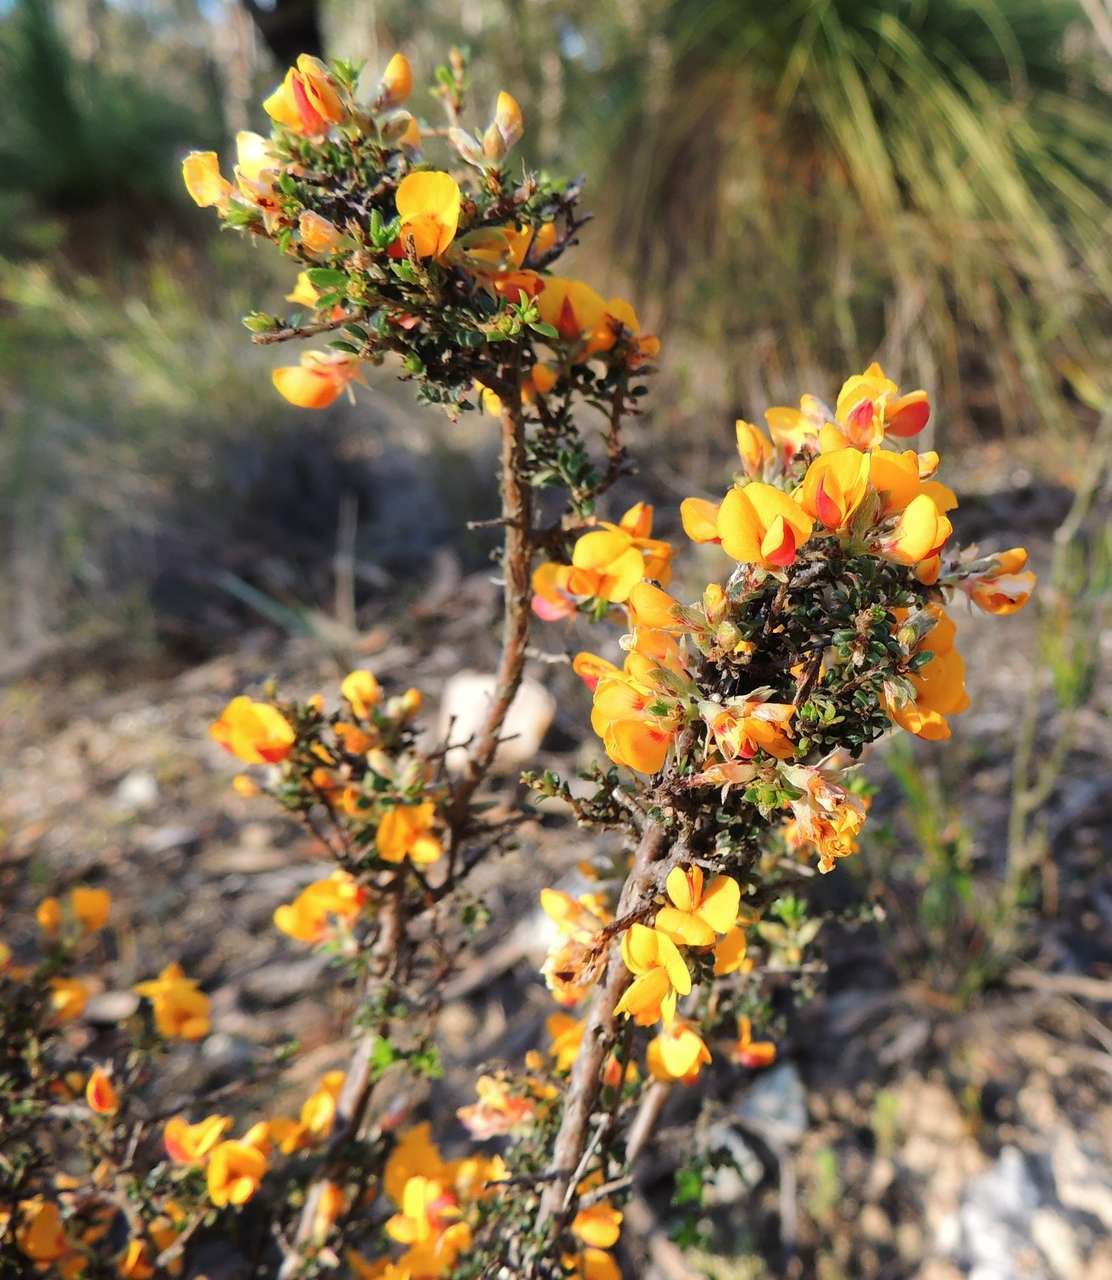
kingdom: Plantae
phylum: Tracheophyta
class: Magnoliopsida
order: Fabales
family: Fabaceae
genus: Pultenaea
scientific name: Pultenaea gunnii
